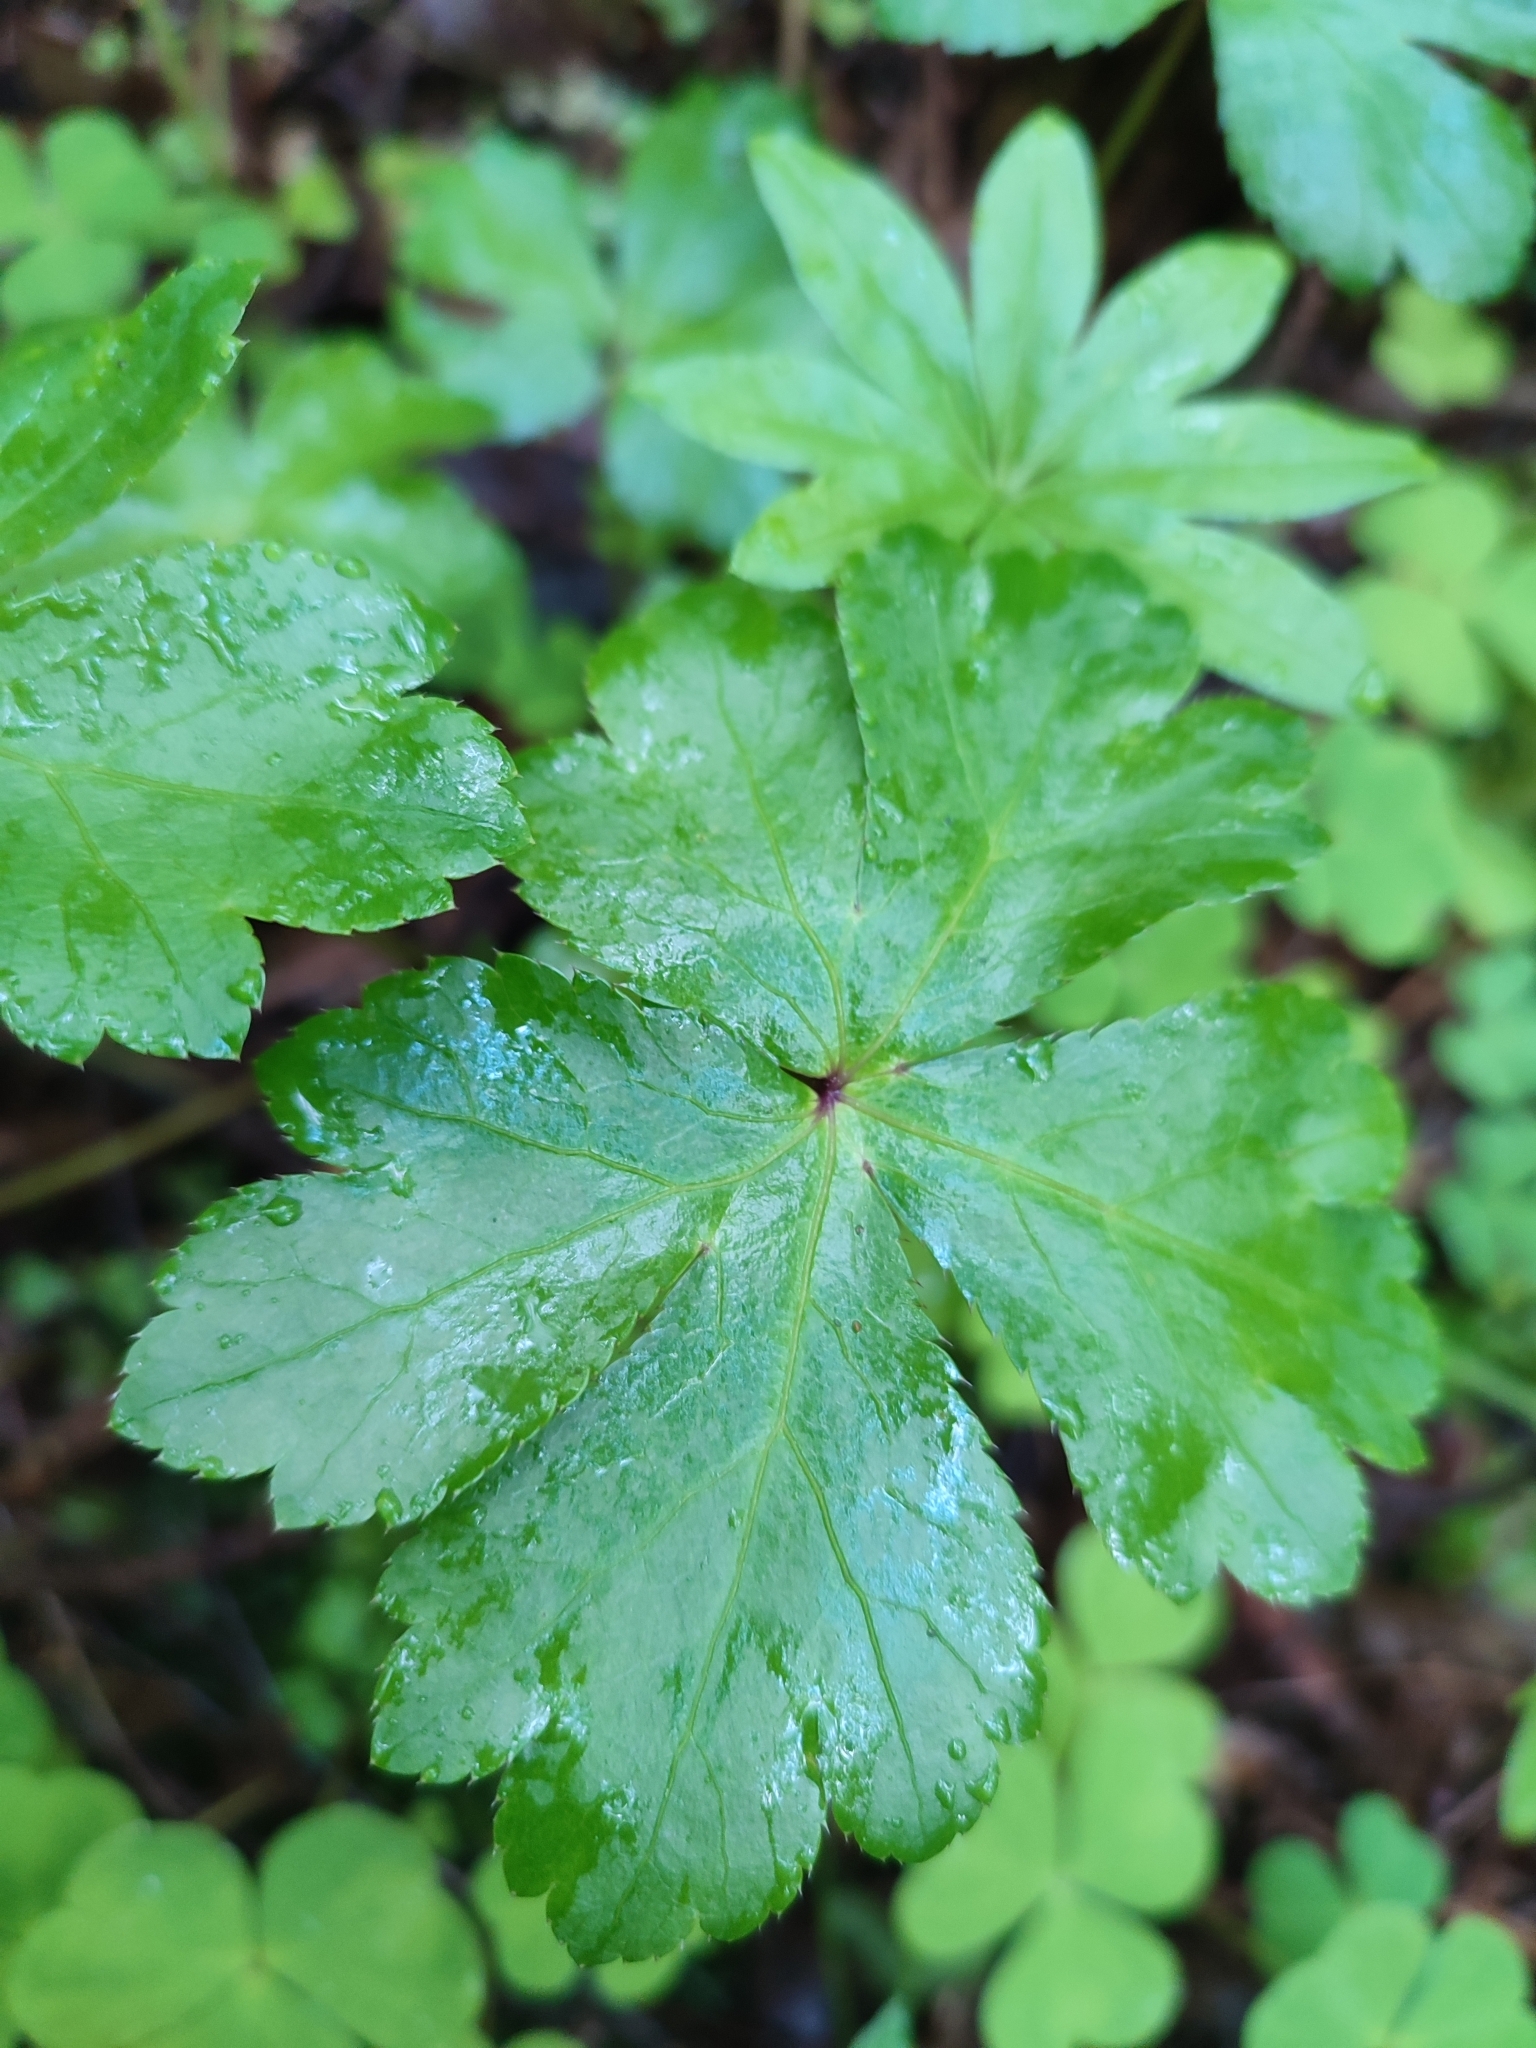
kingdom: Plantae
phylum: Tracheophyta
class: Magnoliopsida
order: Apiales
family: Apiaceae
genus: Sanicula
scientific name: Sanicula europaea
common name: Sanicle
